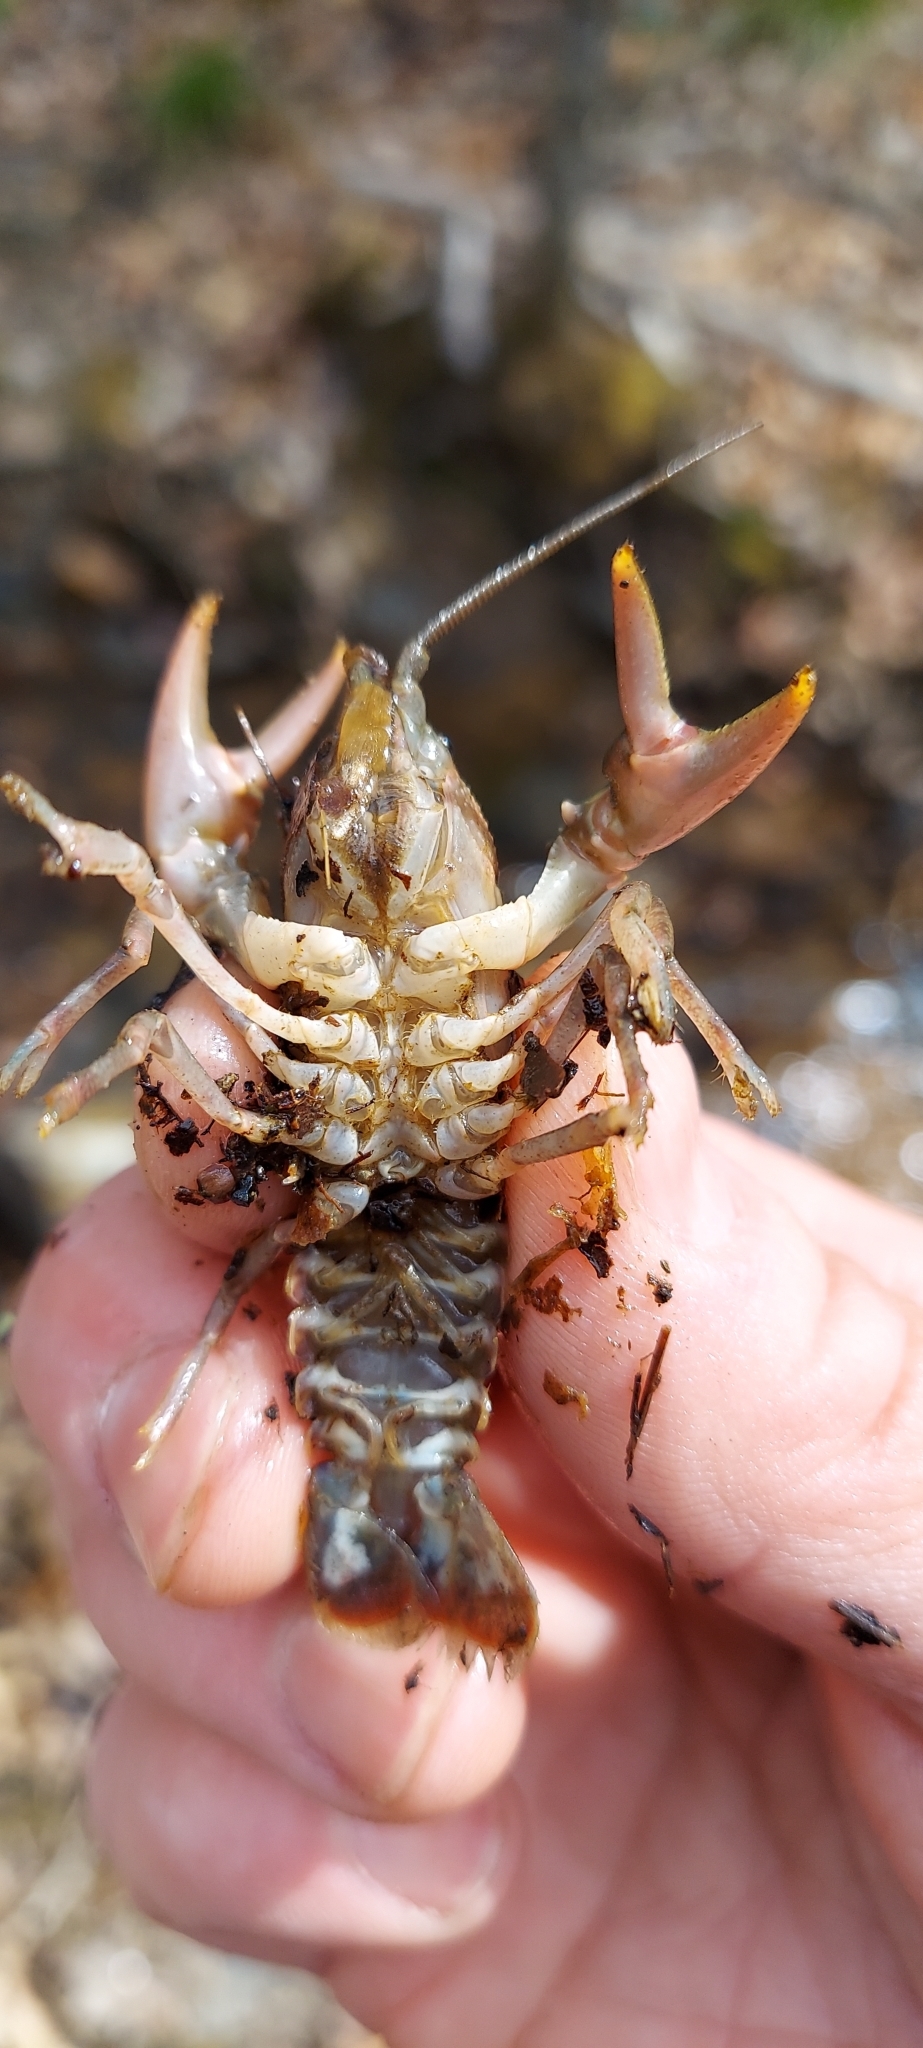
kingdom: Animalia
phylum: Arthropoda
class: Malacostraca
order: Decapoda
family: Cambaridae
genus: Cambarus
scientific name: Cambarus bartonii
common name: Appalachian brook crayfish
